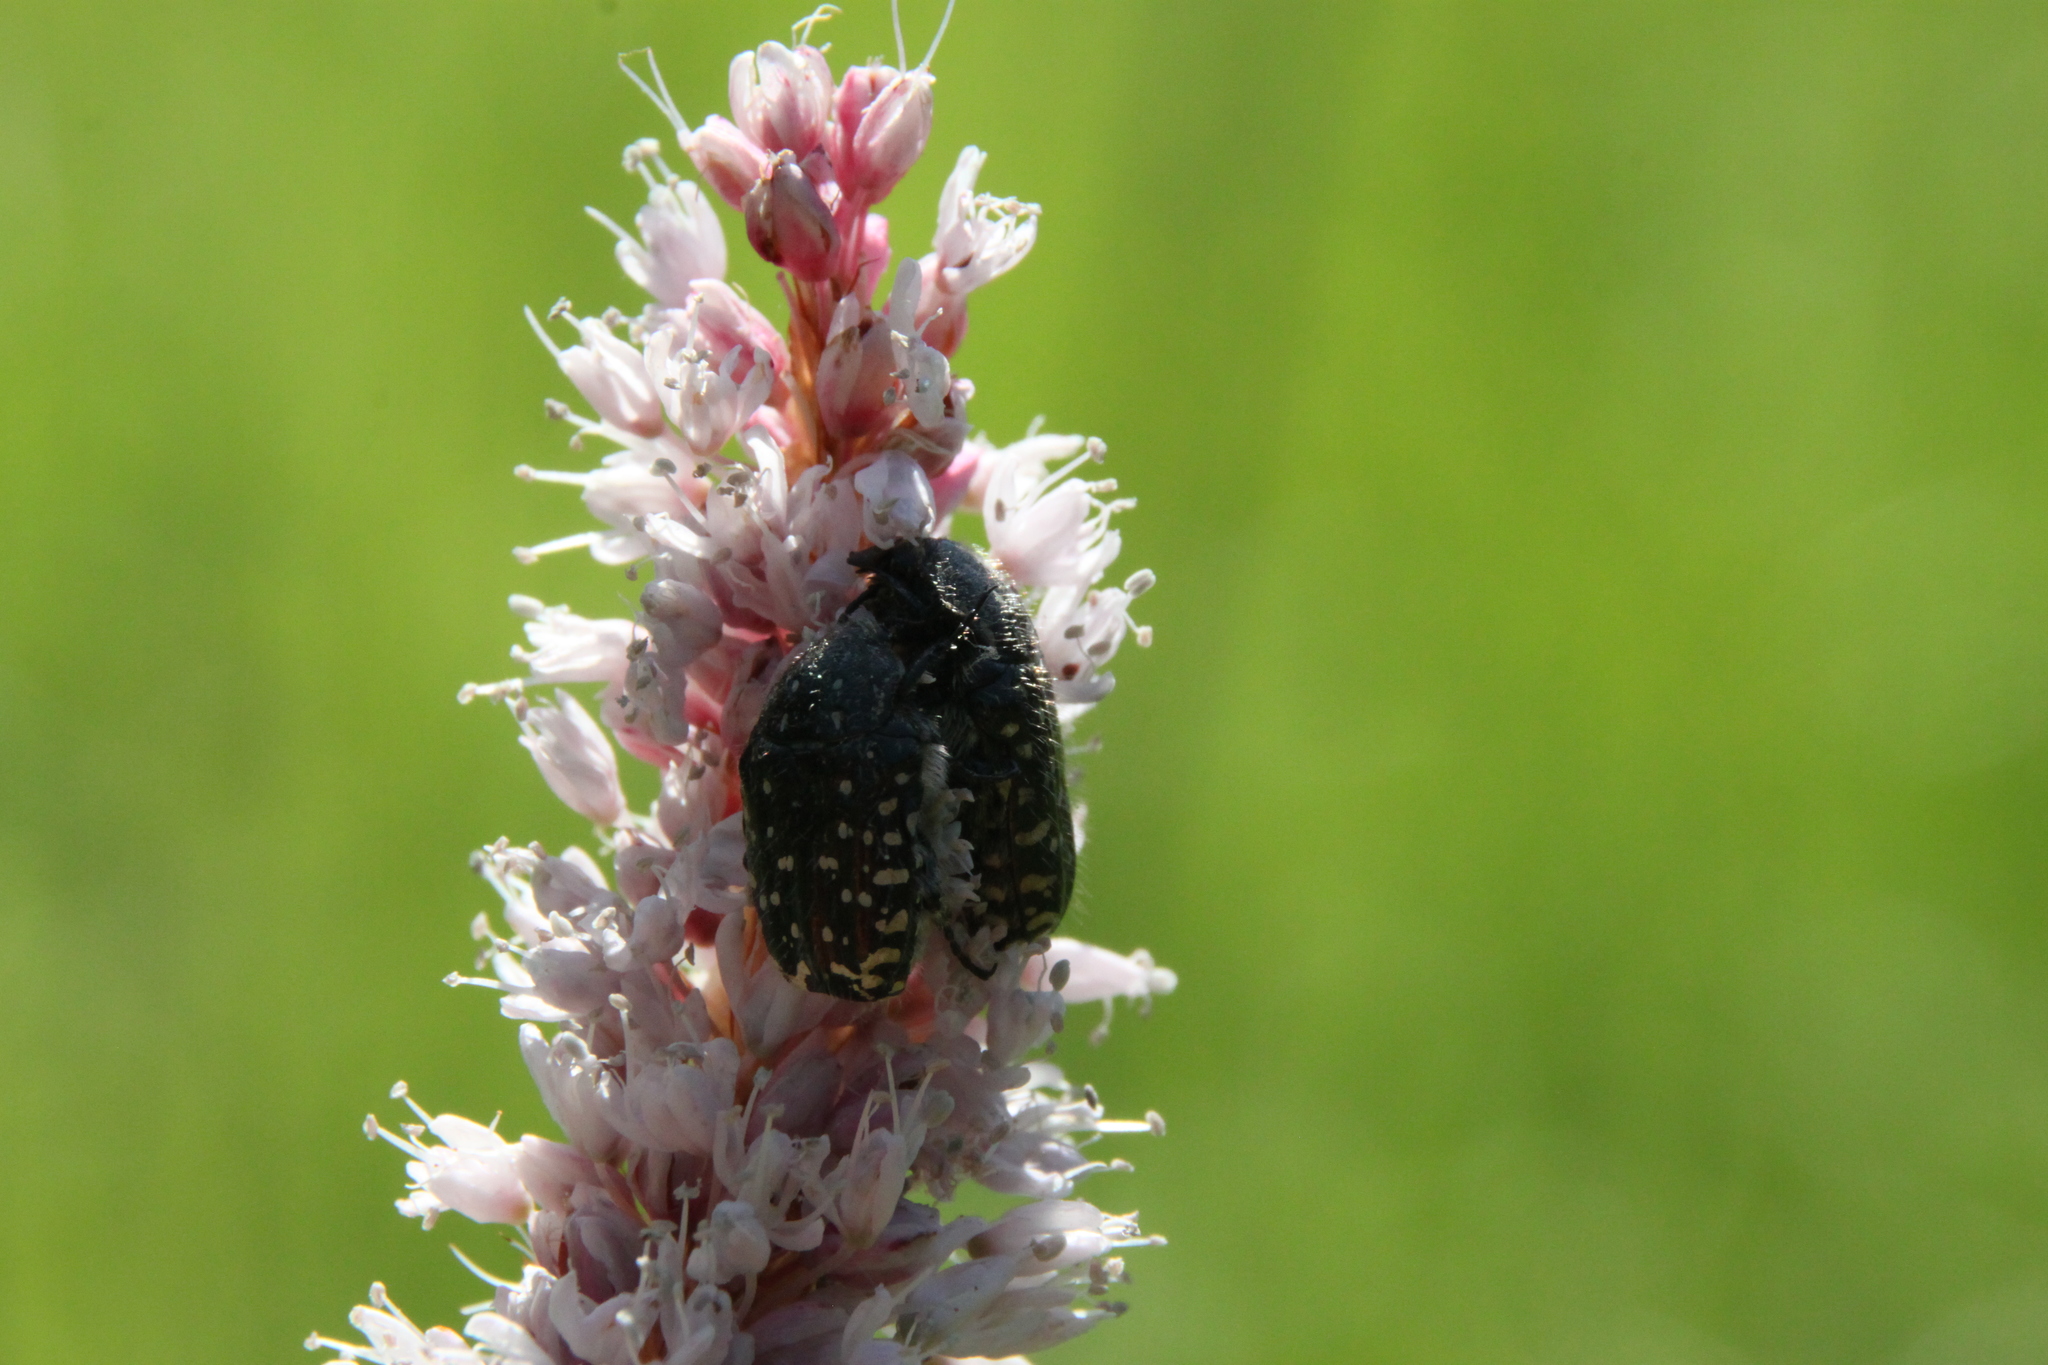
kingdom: Animalia
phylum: Arthropoda
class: Insecta
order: Coleoptera
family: Scarabaeidae
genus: Oxythyrea
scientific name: Oxythyrea funesta
